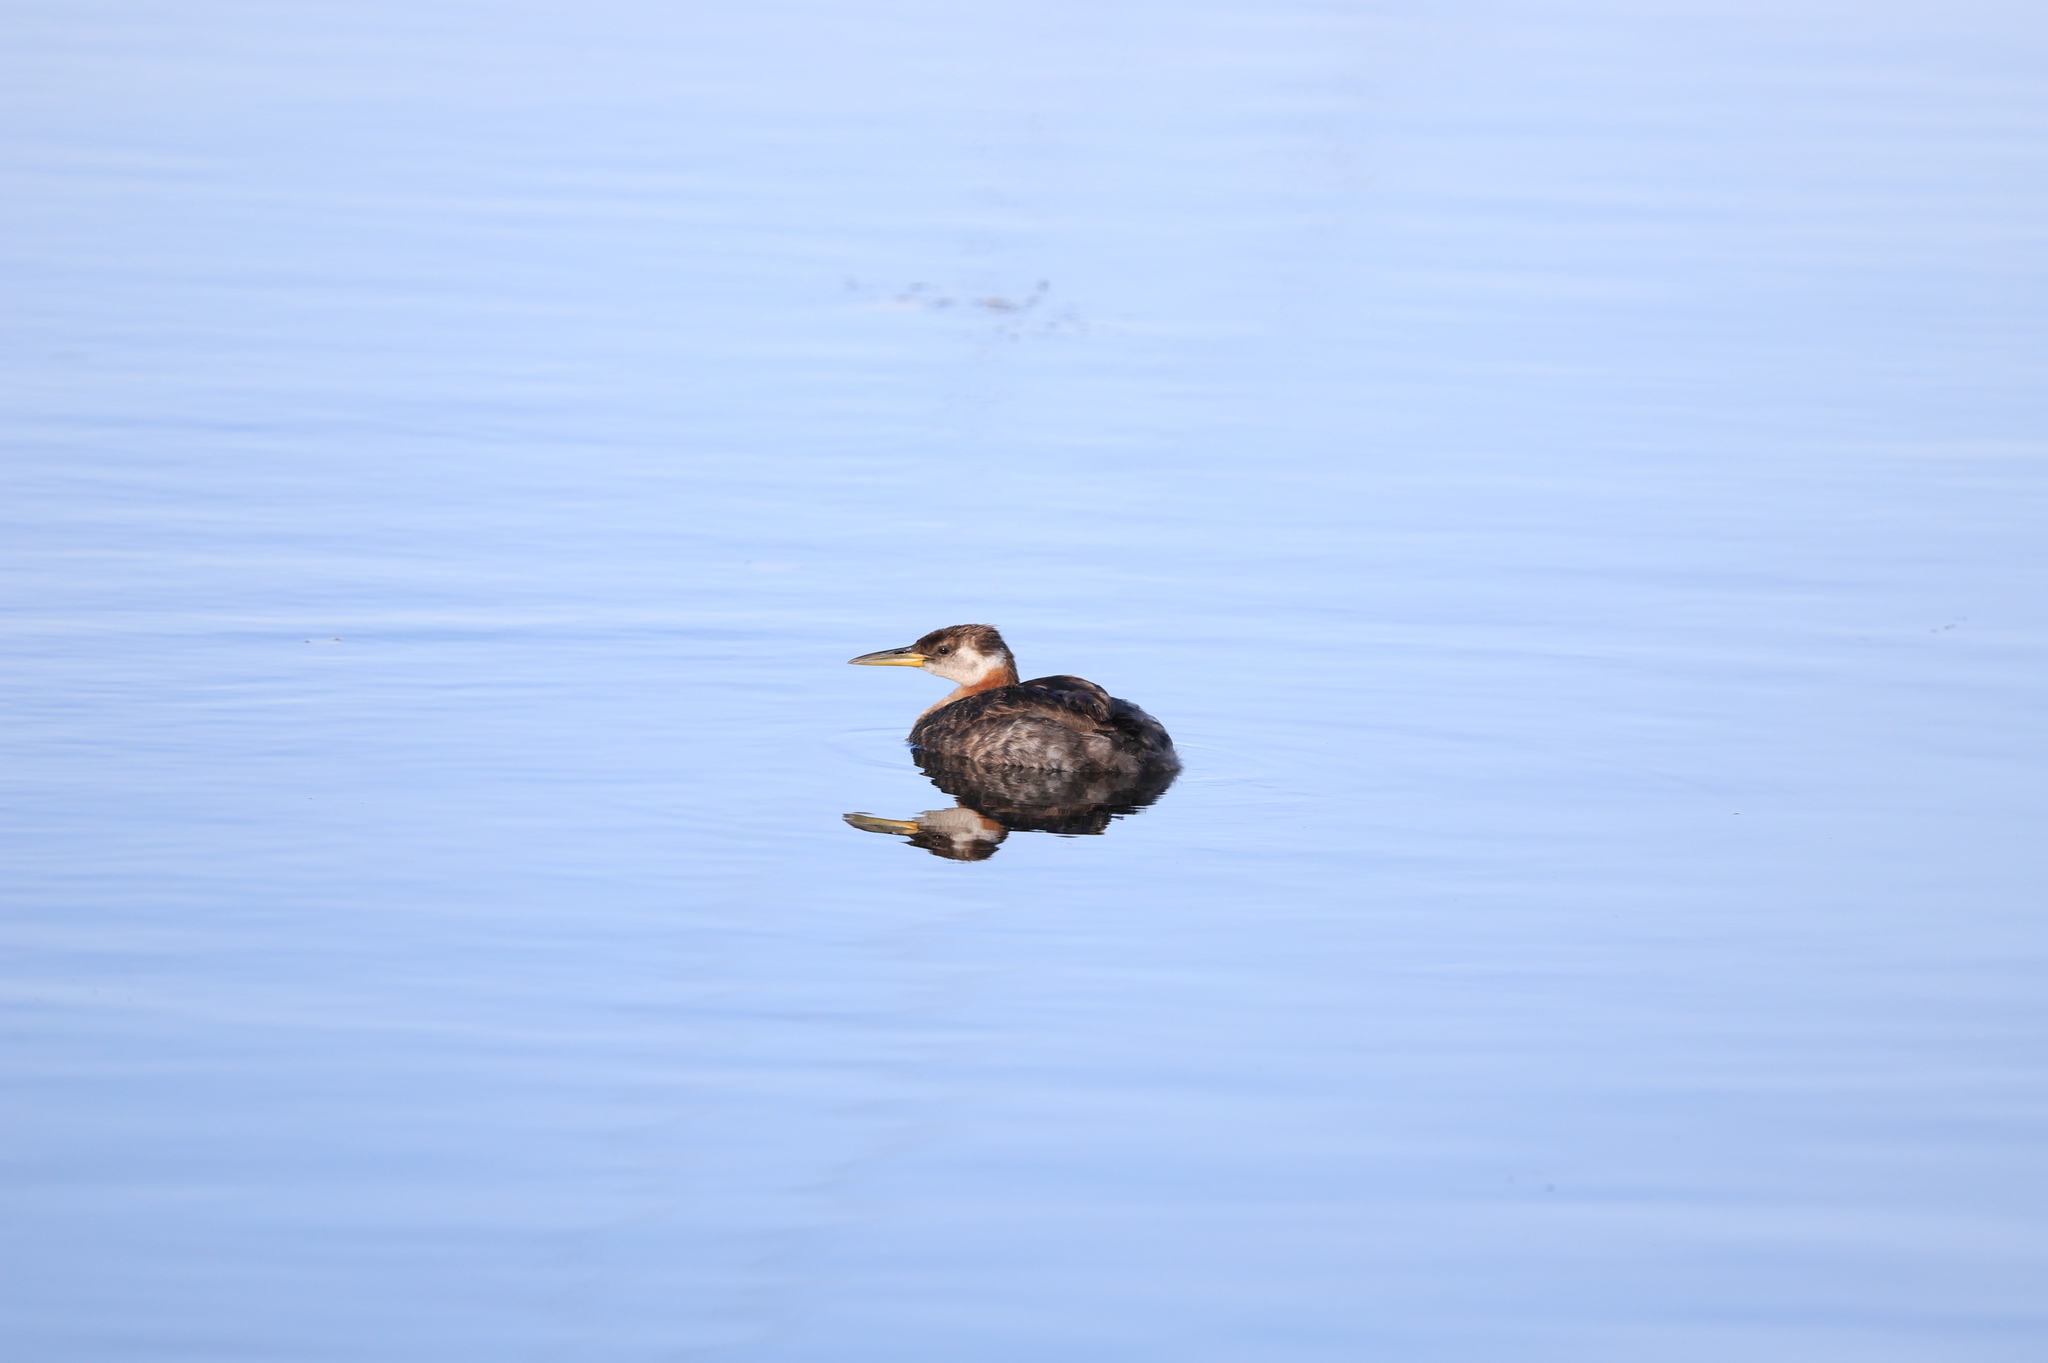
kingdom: Animalia
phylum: Chordata
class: Aves
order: Podicipediformes
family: Podicipedidae
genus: Podiceps
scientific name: Podiceps grisegena
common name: Red-necked grebe
